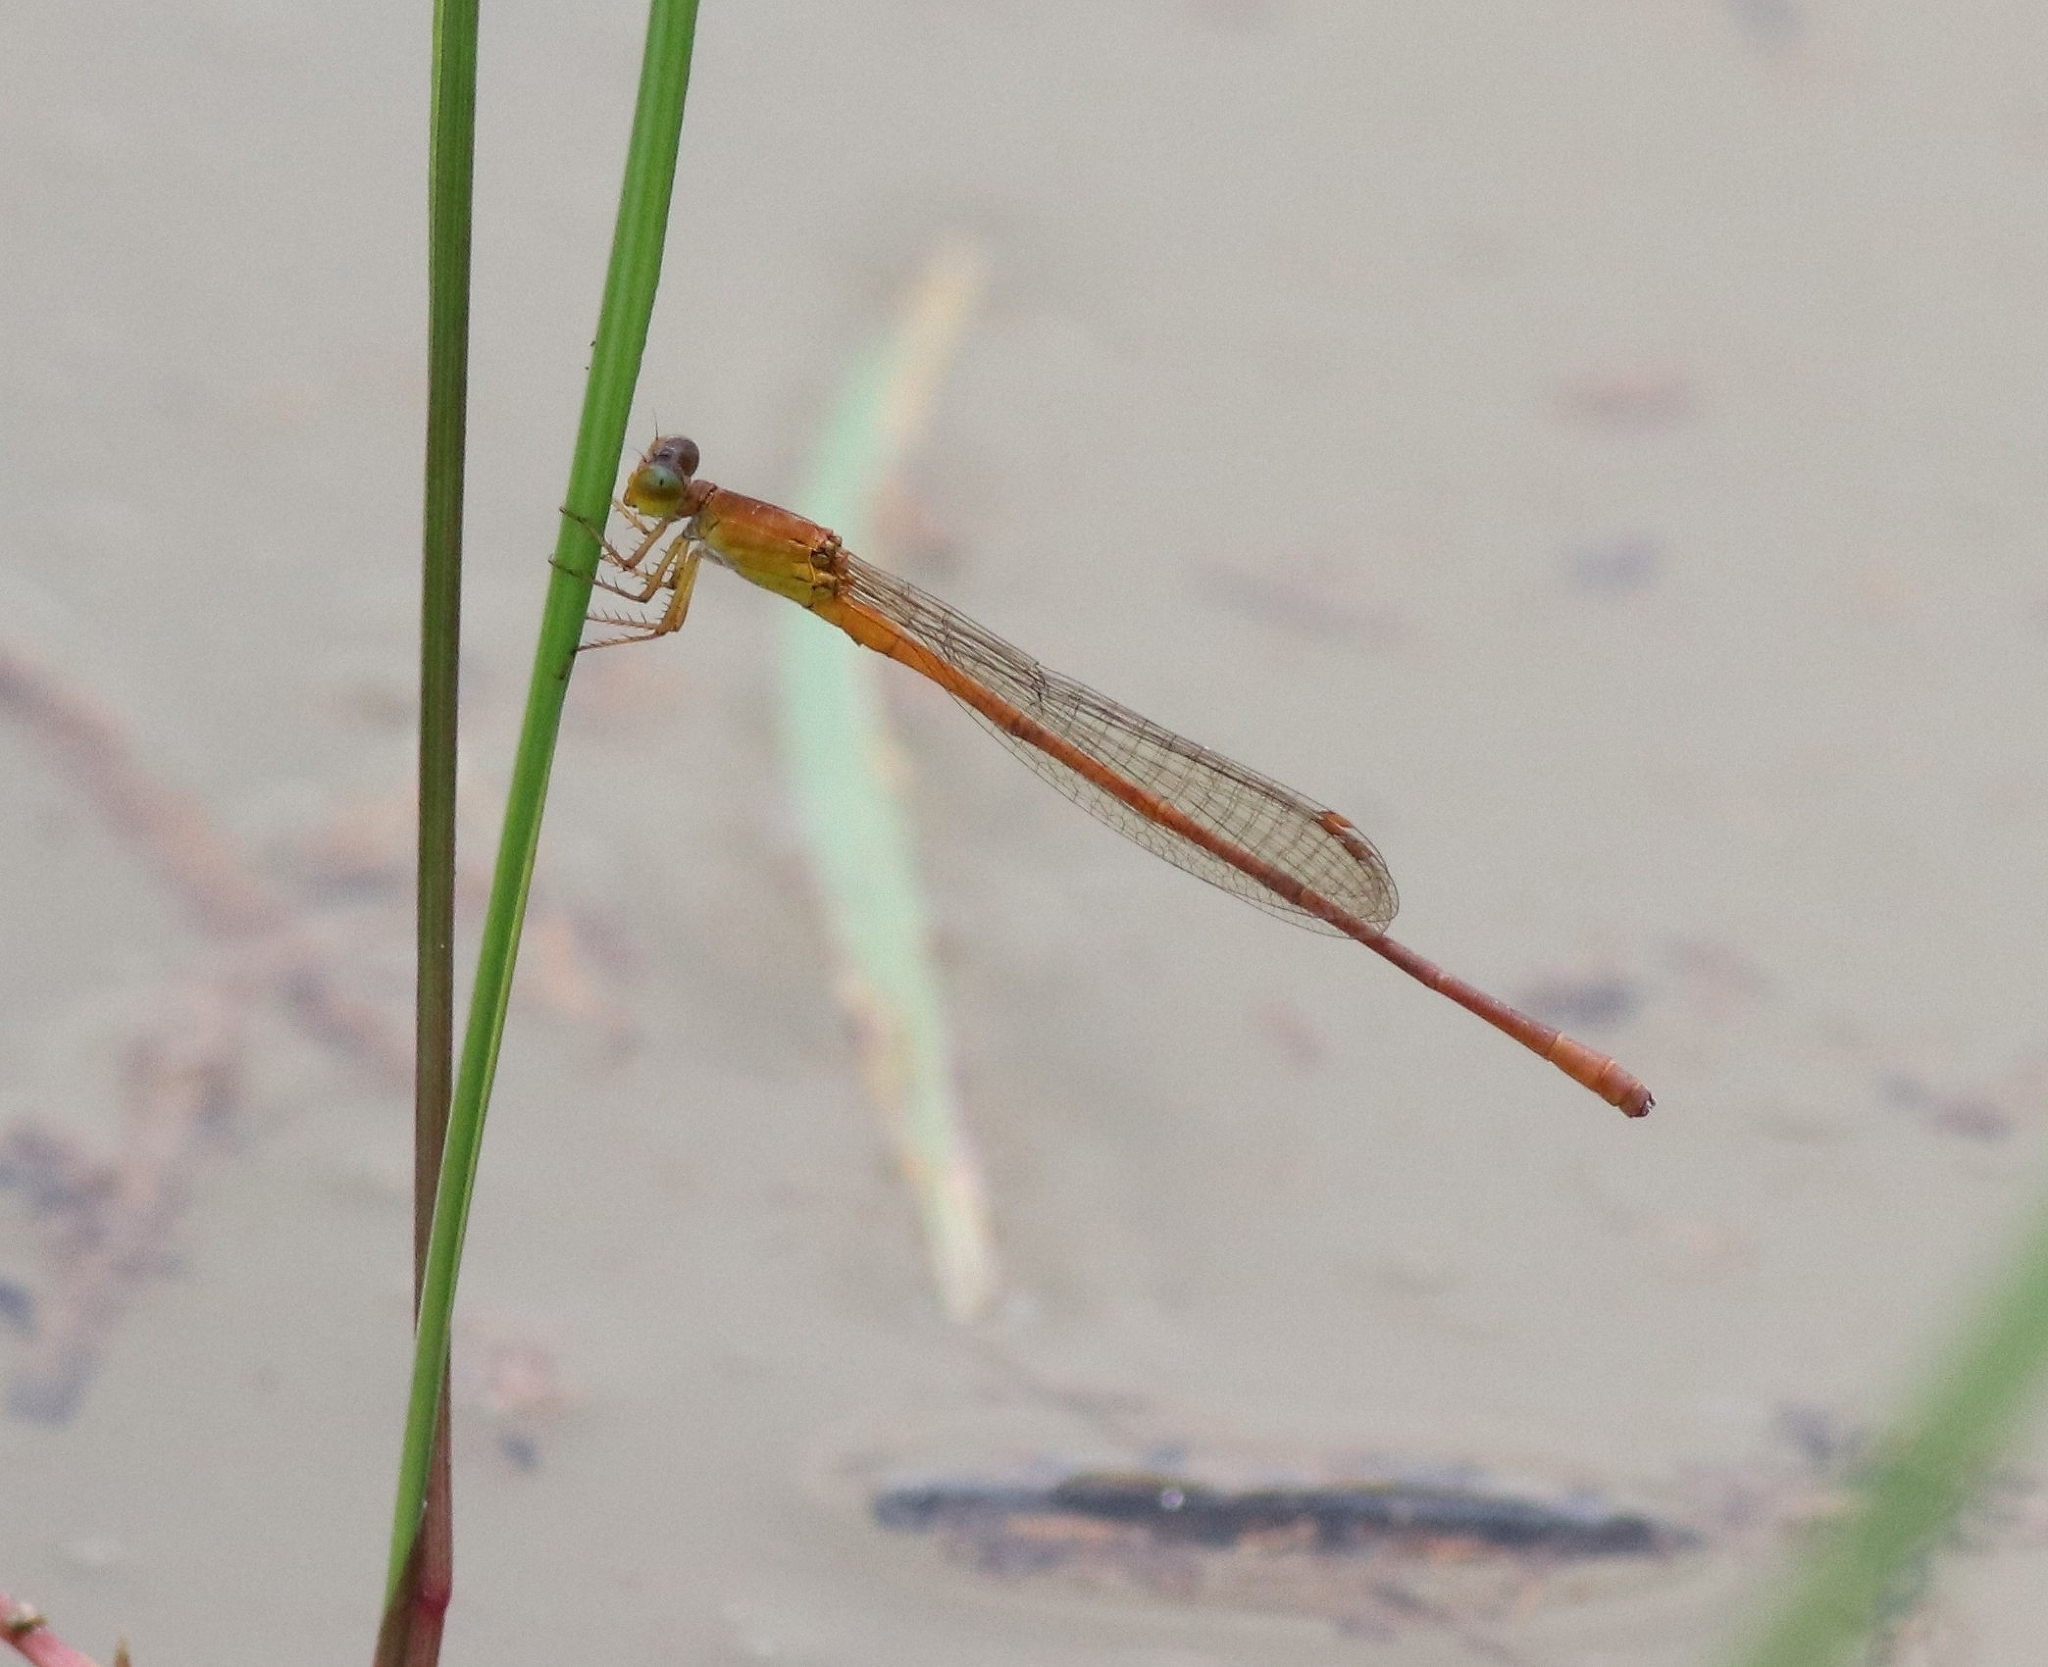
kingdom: Animalia
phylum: Arthropoda
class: Insecta
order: Odonata
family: Coenagrionidae
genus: Ceriagrion
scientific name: Ceriagrion rubiae
